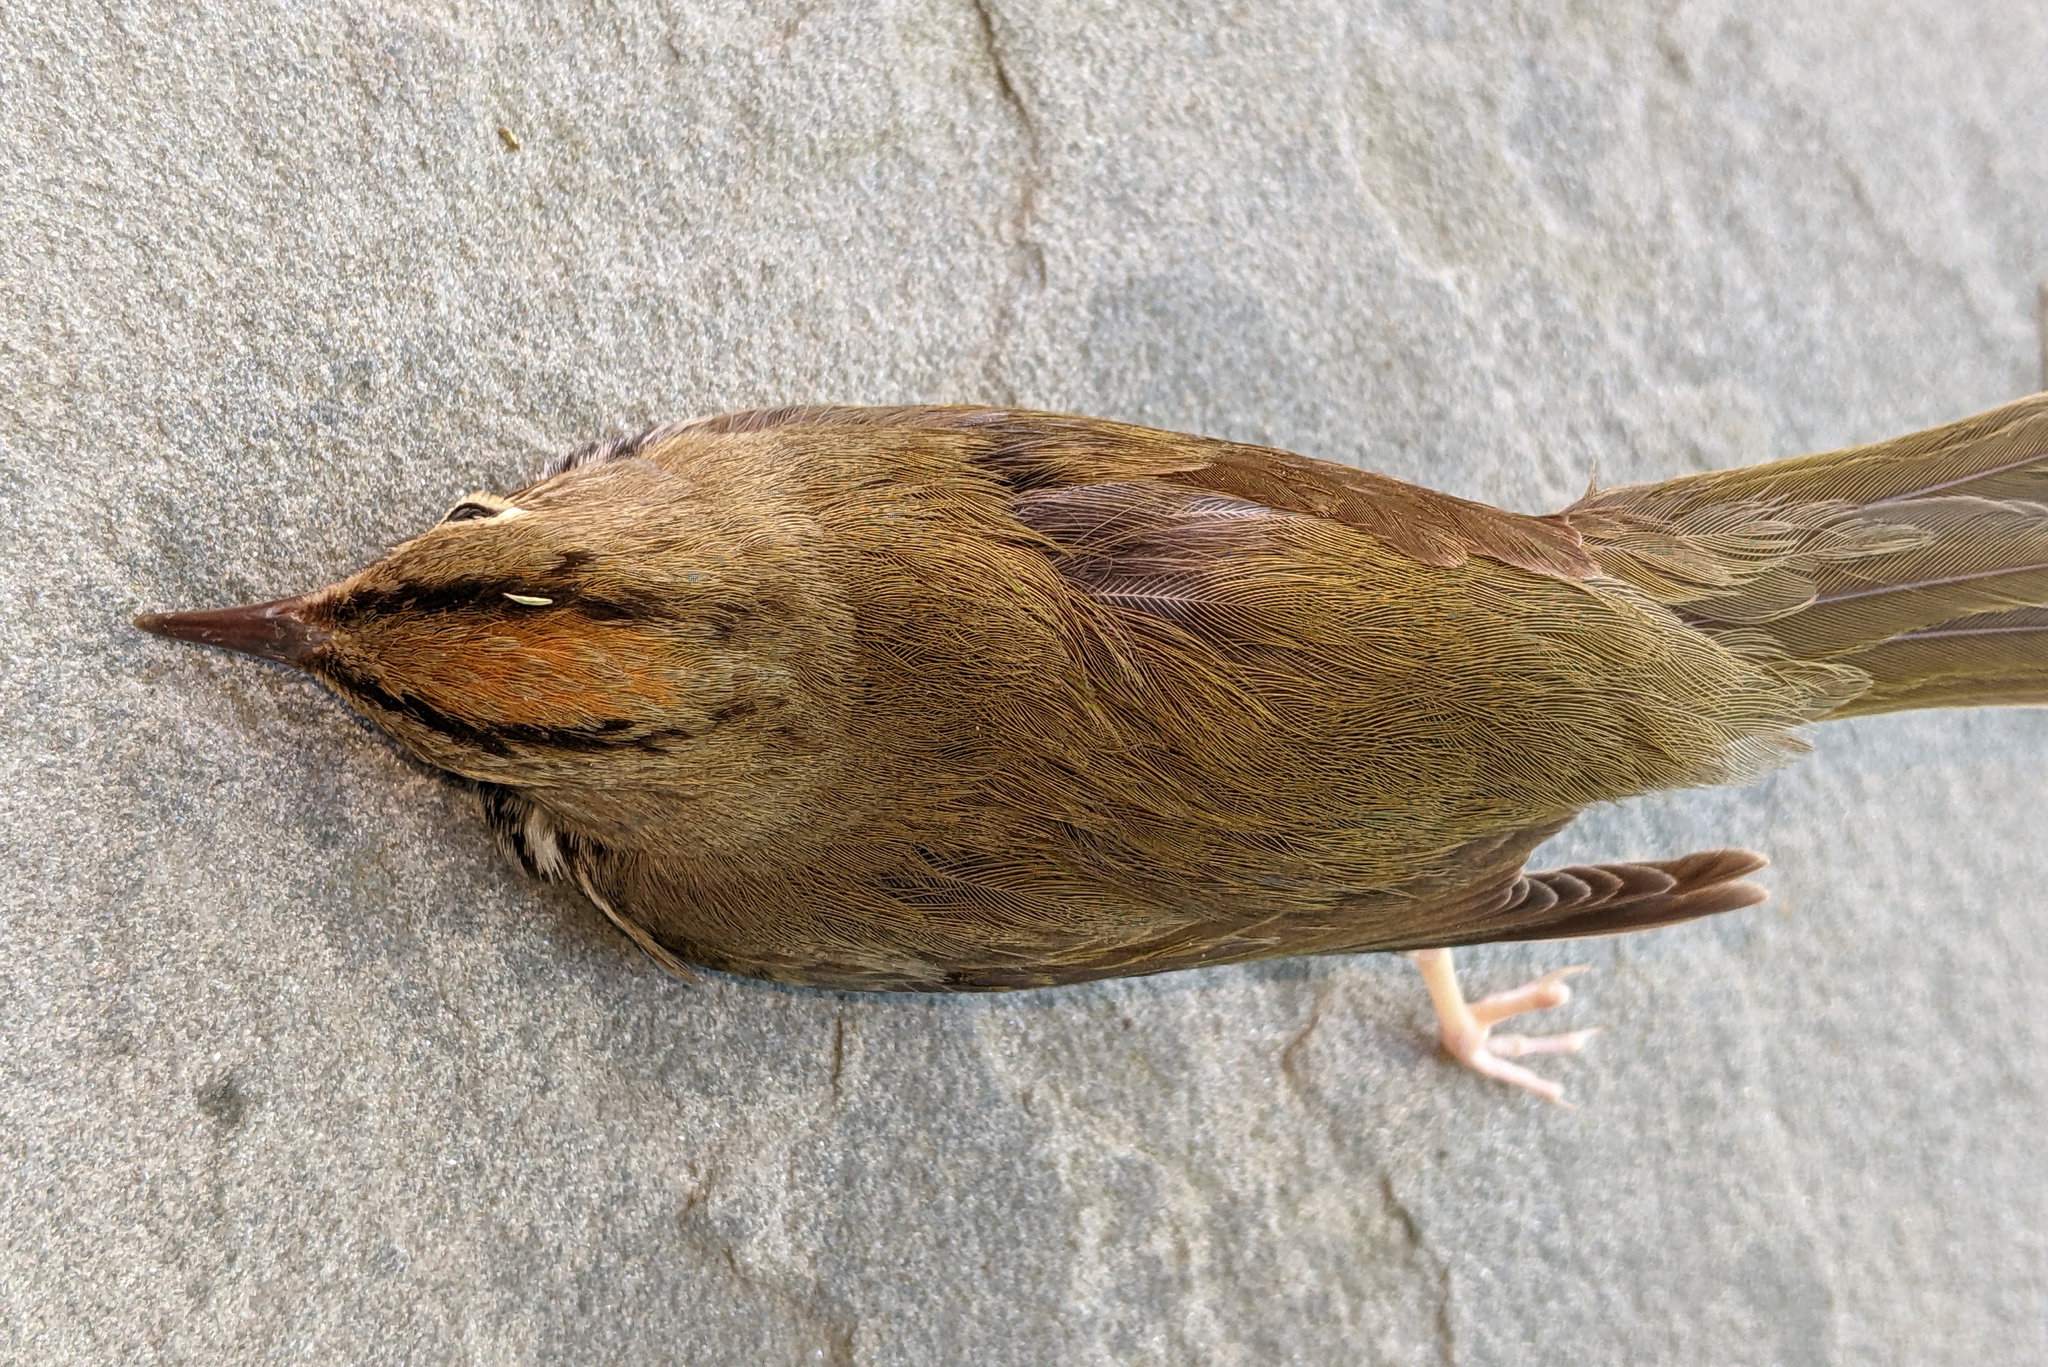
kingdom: Animalia
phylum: Chordata
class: Aves
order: Passeriformes
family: Parulidae
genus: Seiurus
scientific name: Seiurus aurocapilla
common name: Ovenbird
